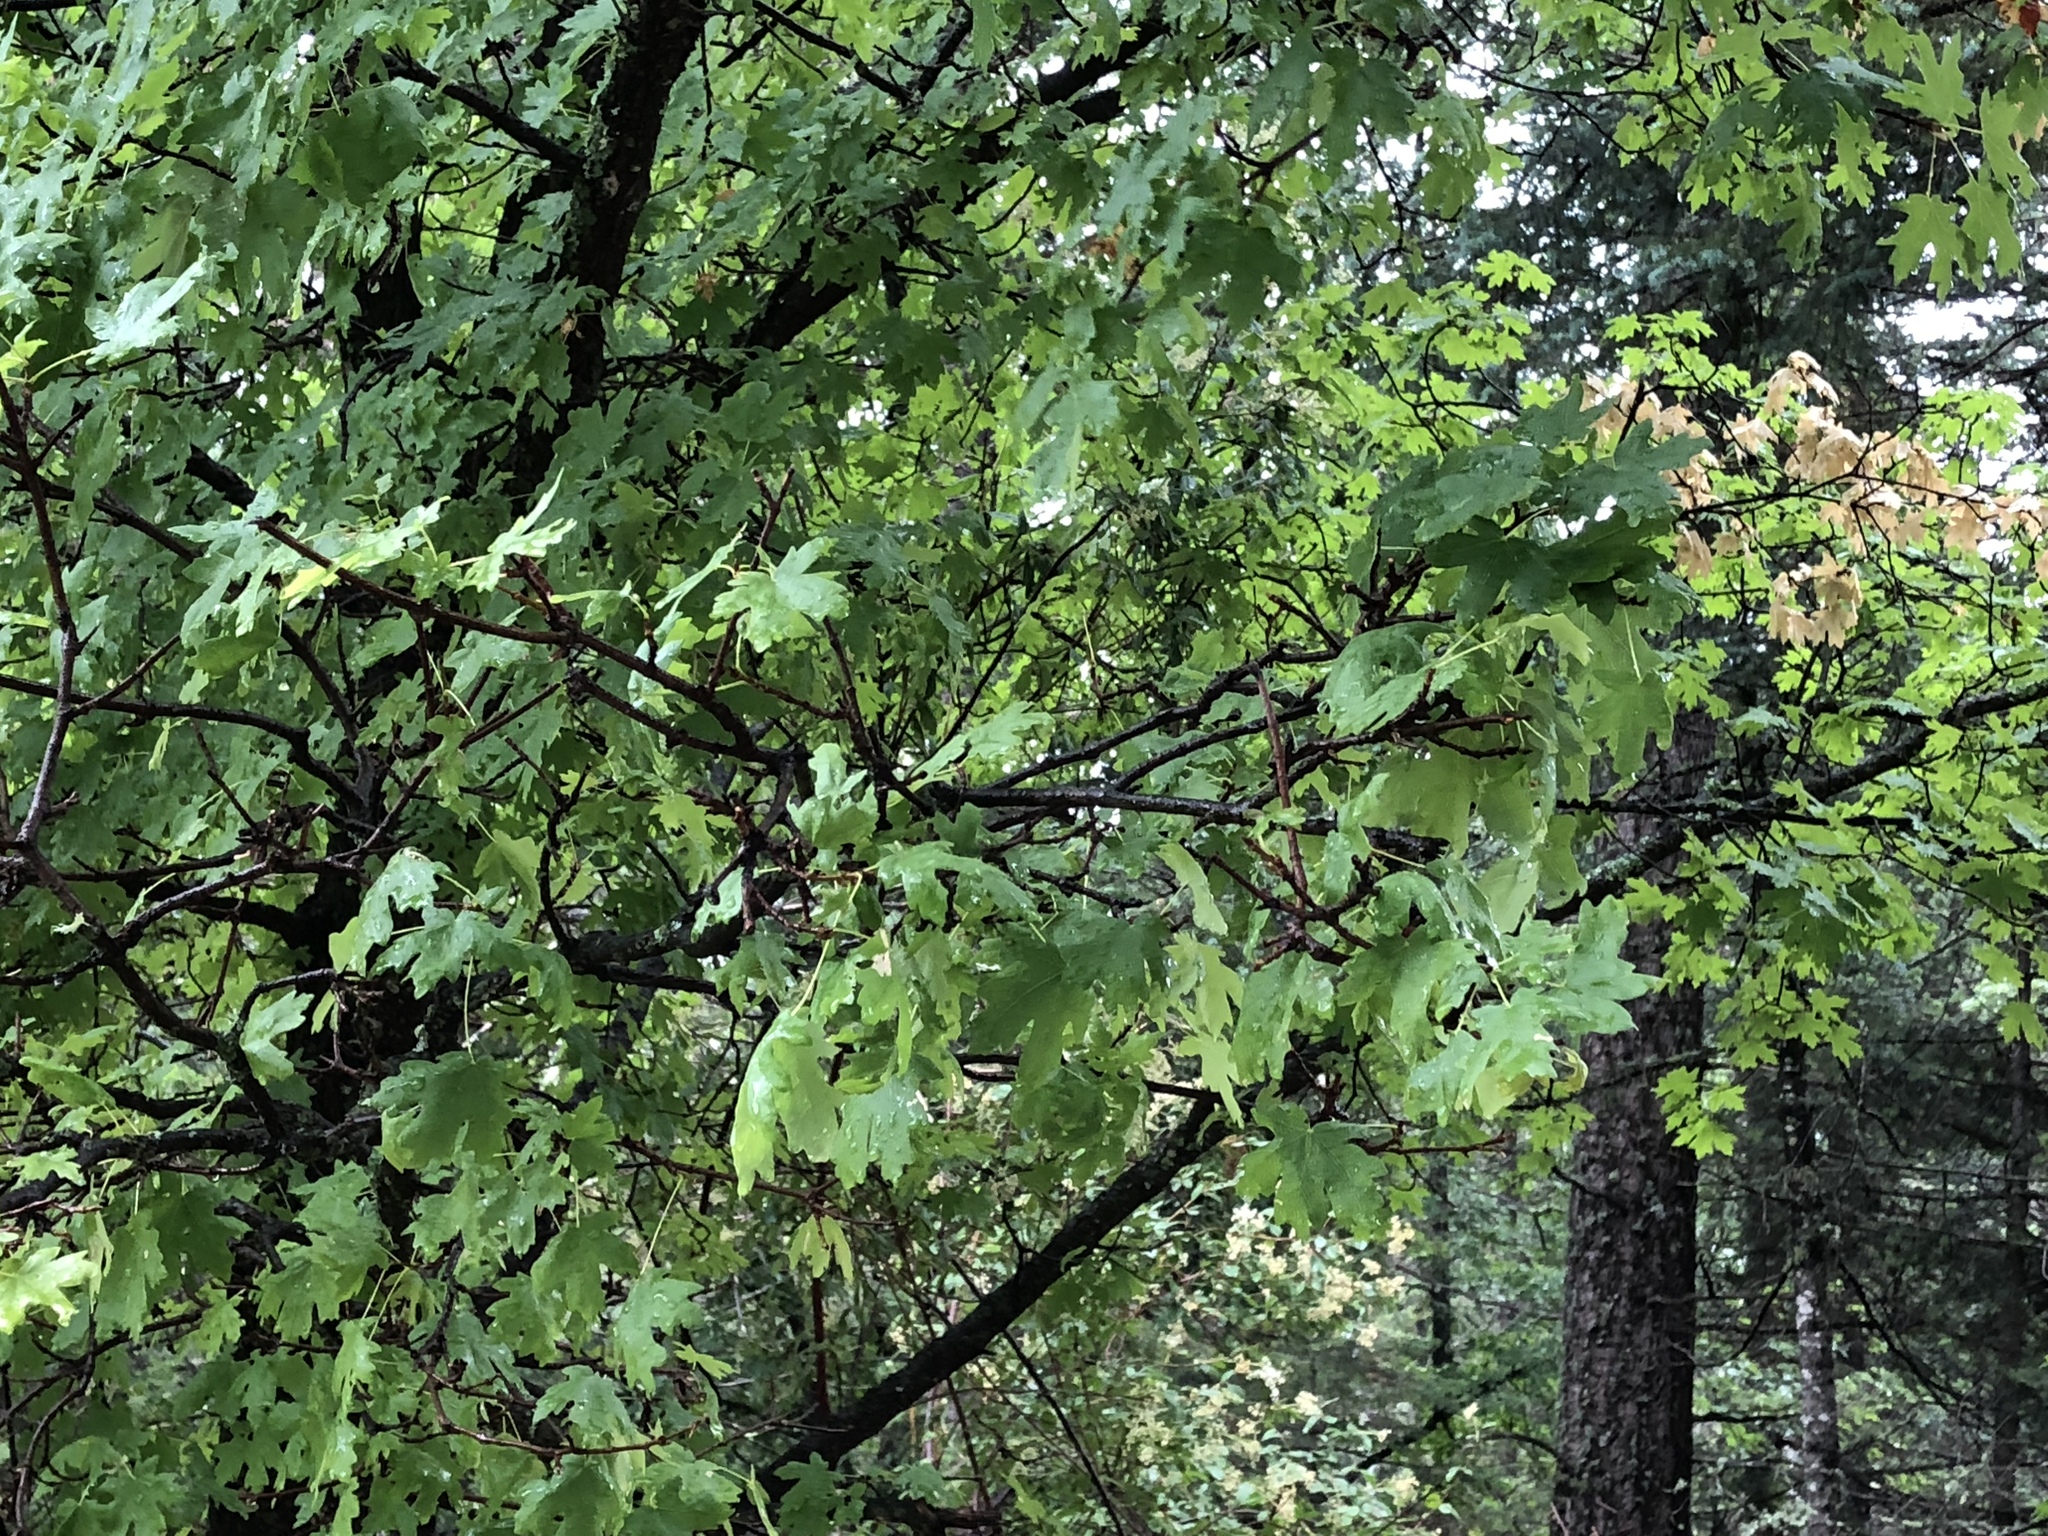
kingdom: Plantae
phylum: Tracheophyta
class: Magnoliopsida
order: Sapindales
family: Sapindaceae
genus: Acer
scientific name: Acer grandidentatum
